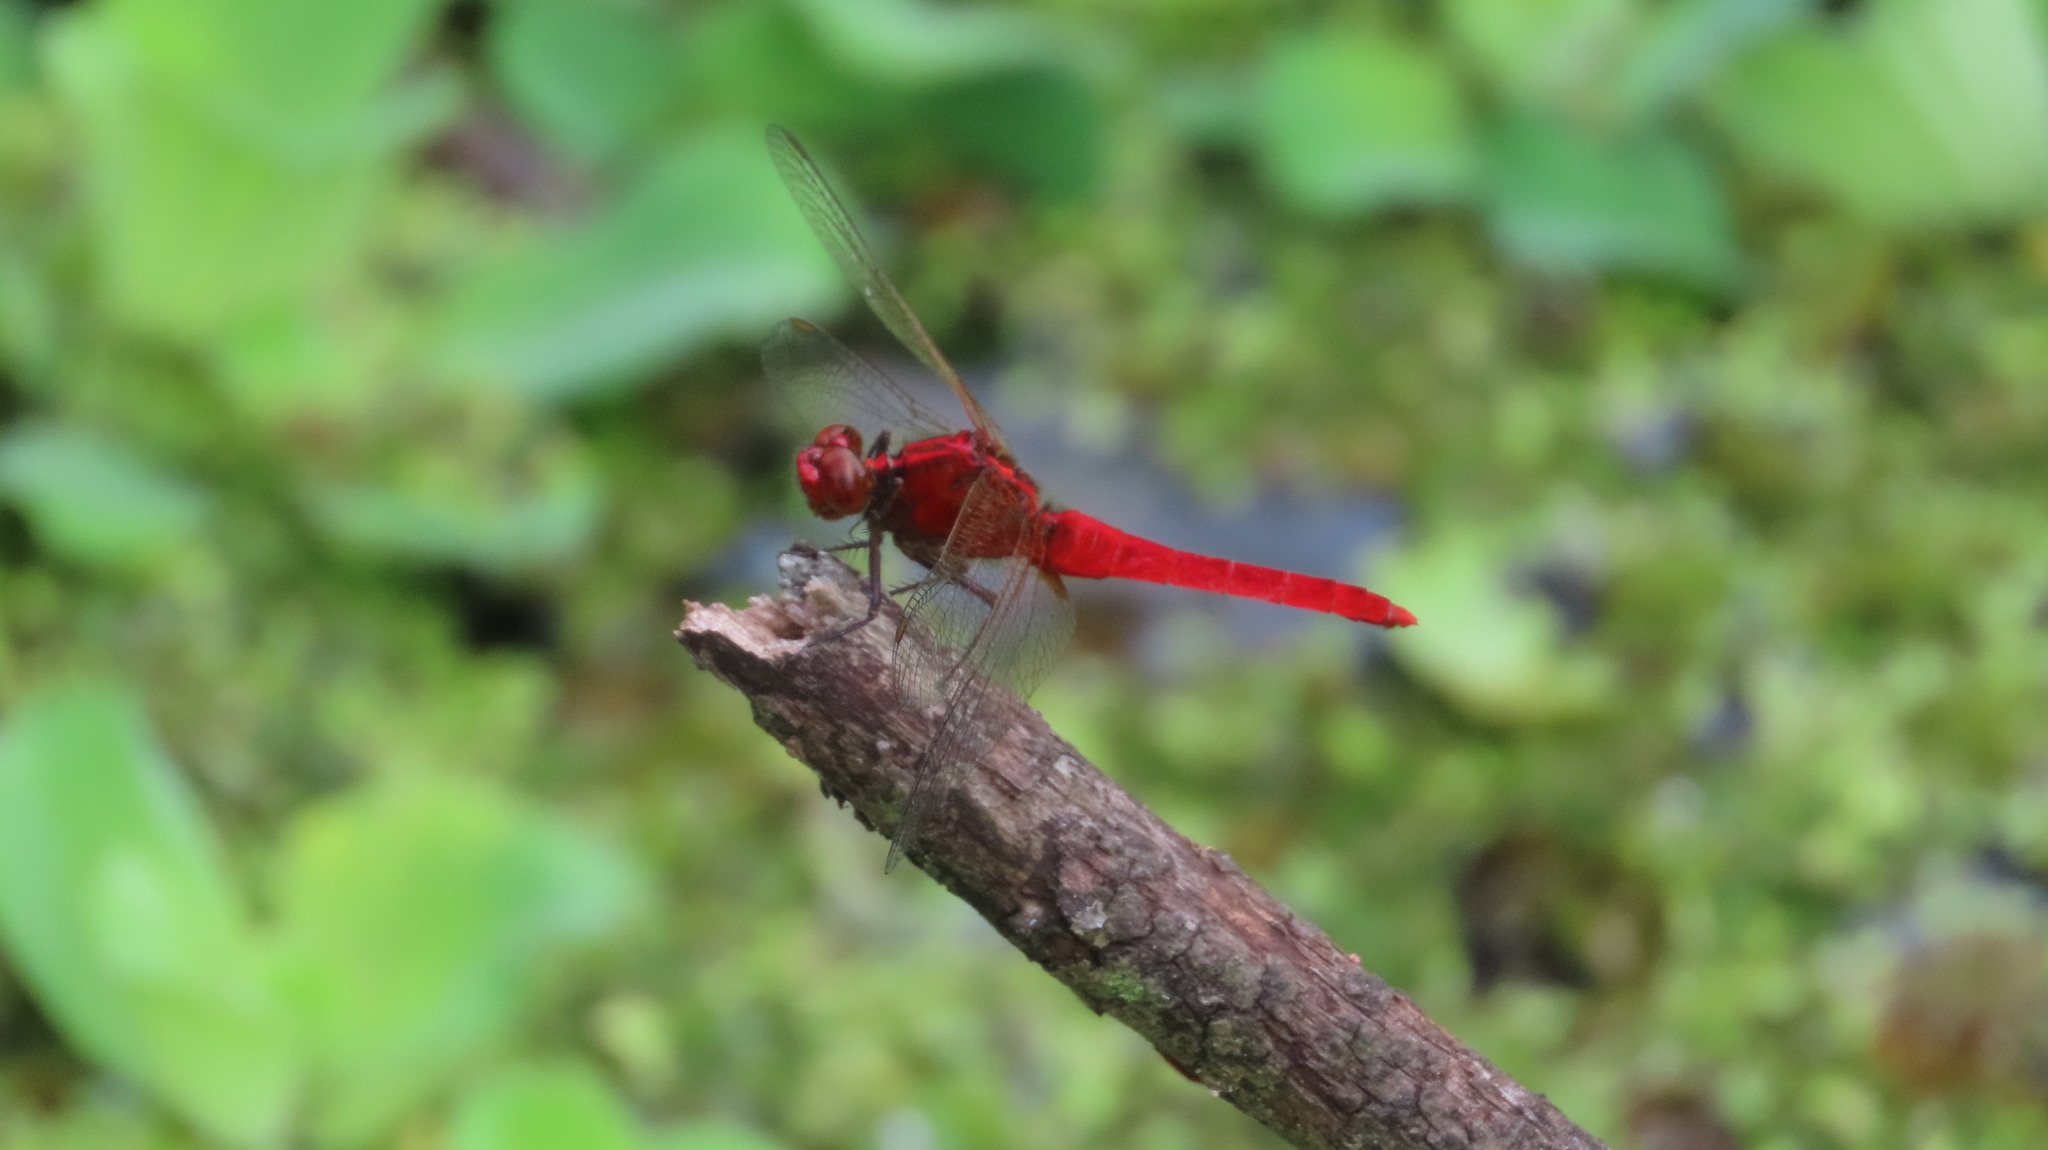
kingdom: Animalia
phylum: Arthropoda
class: Insecta
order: Odonata
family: Libellulidae
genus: Rhodothemis
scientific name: Rhodothemis rufa
